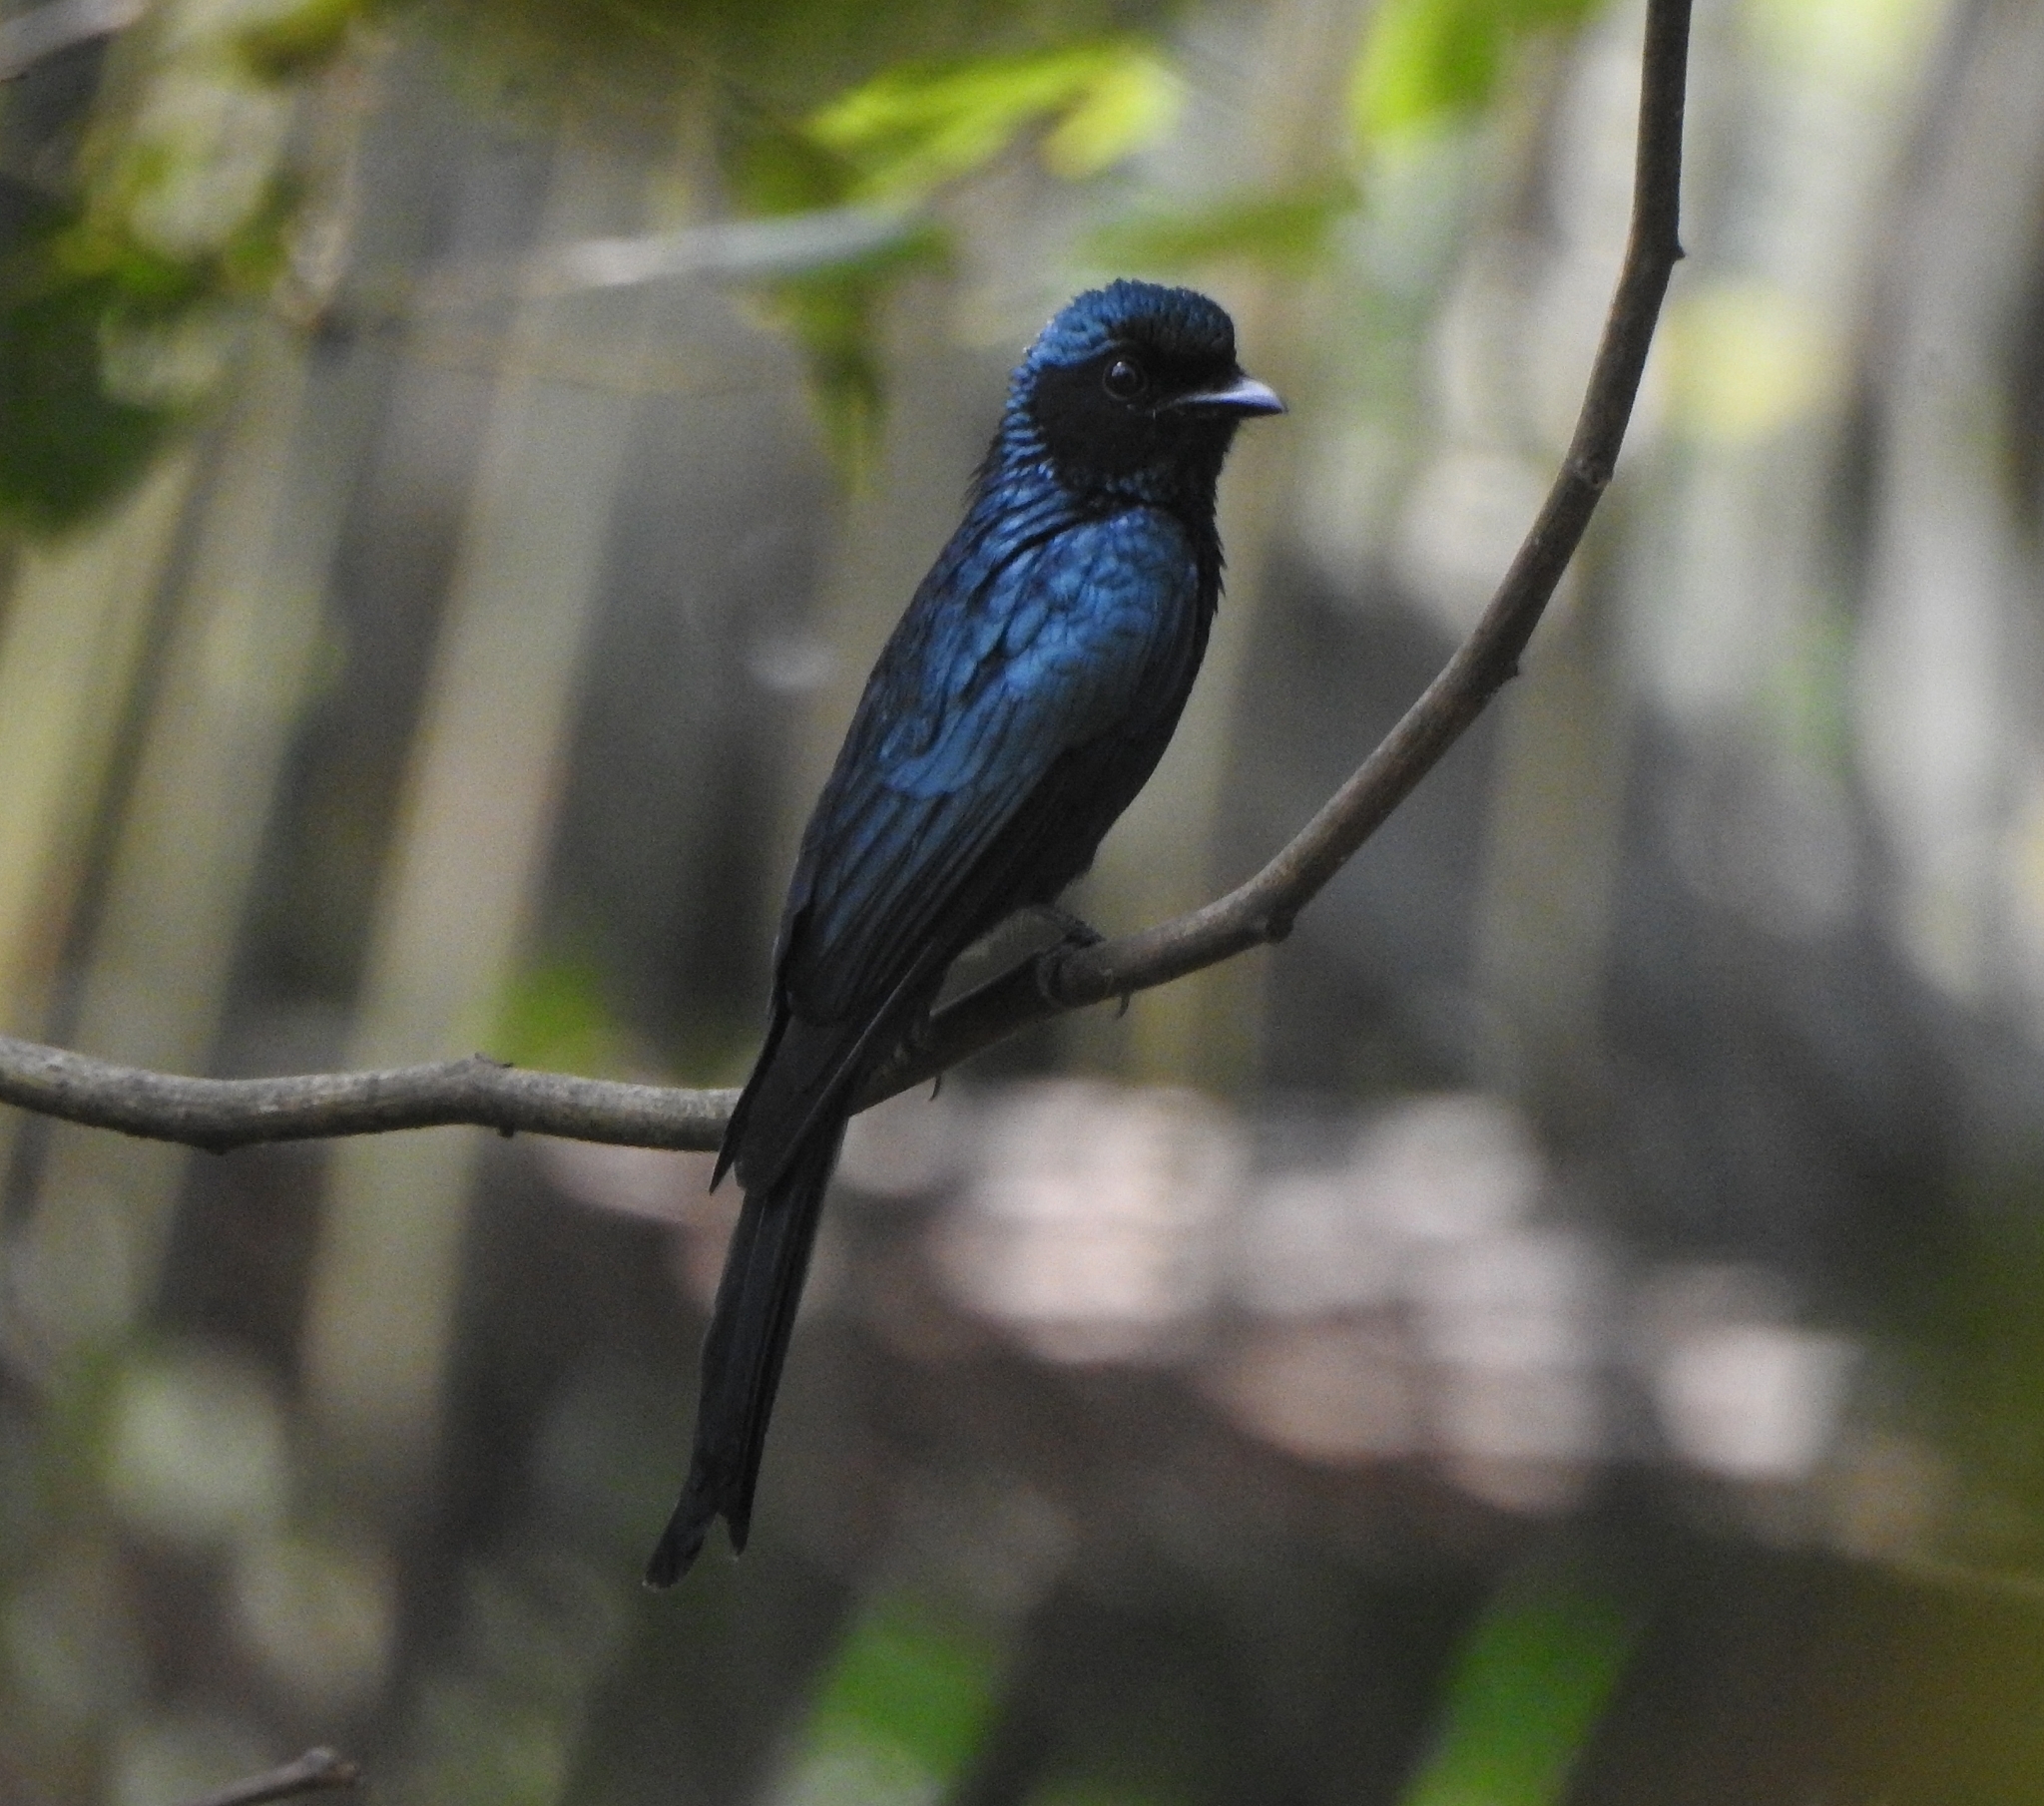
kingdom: Animalia
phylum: Chordata
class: Aves
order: Passeriformes
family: Dicruridae
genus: Dicrurus
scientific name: Dicrurus aeneus
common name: Bronzed drongo
